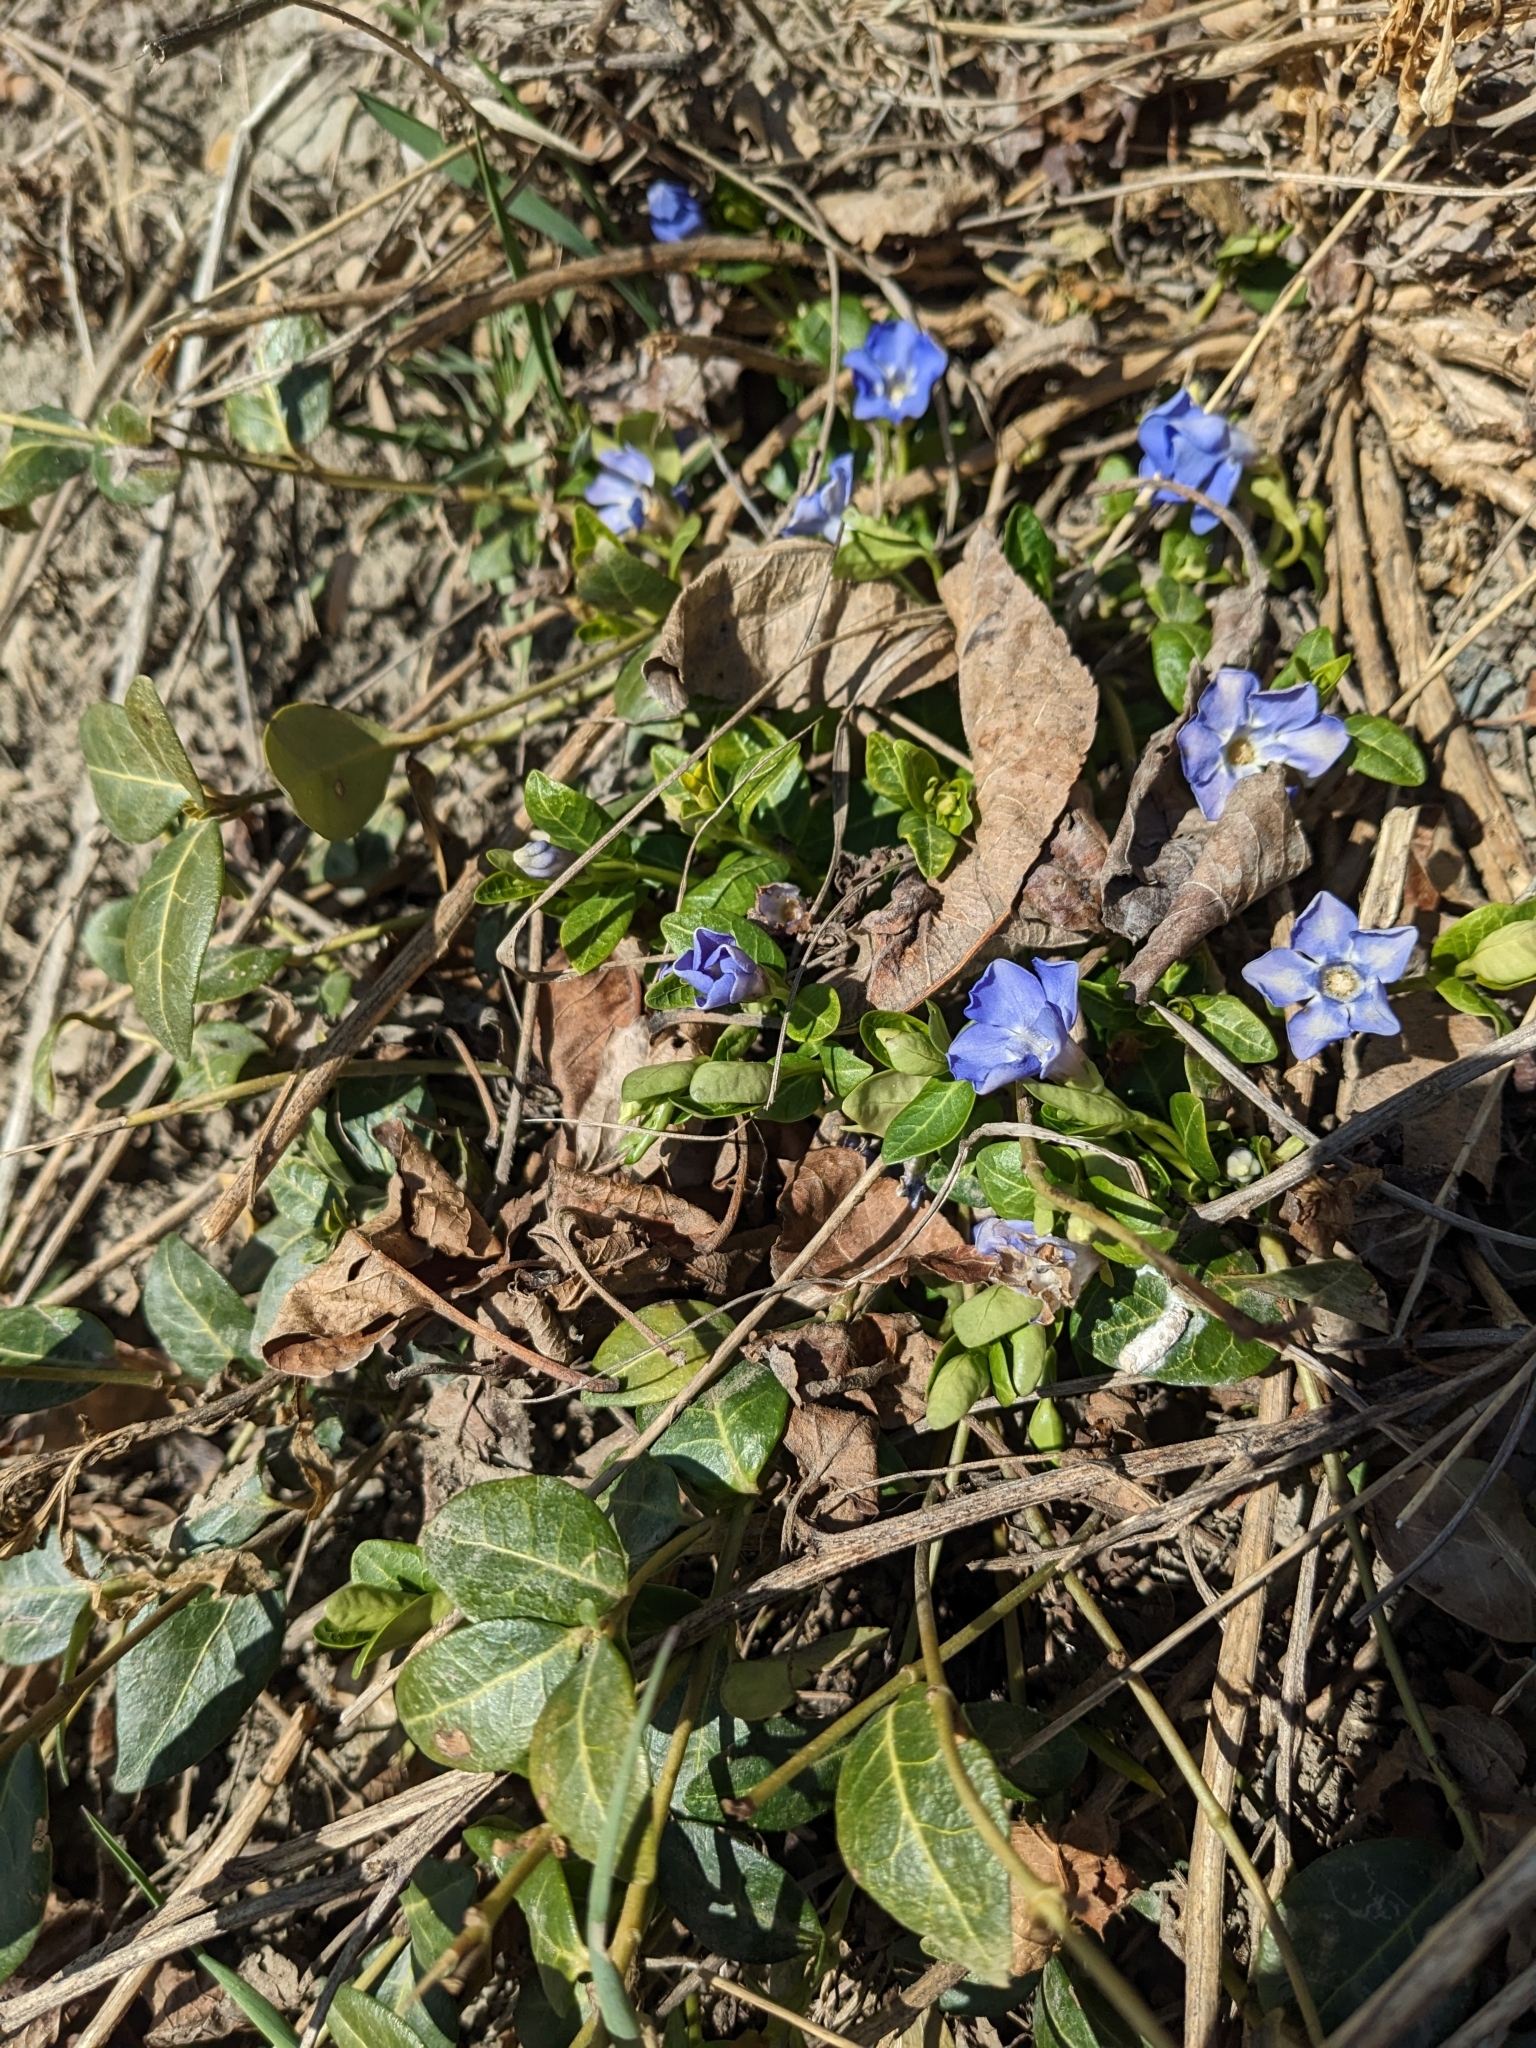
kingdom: Plantae
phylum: Tracheophyta
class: Magnoliopsida
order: Gentianales
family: Apocynaceae
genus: Vinca
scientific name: Vinca minor
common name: Lesser periwinkle
